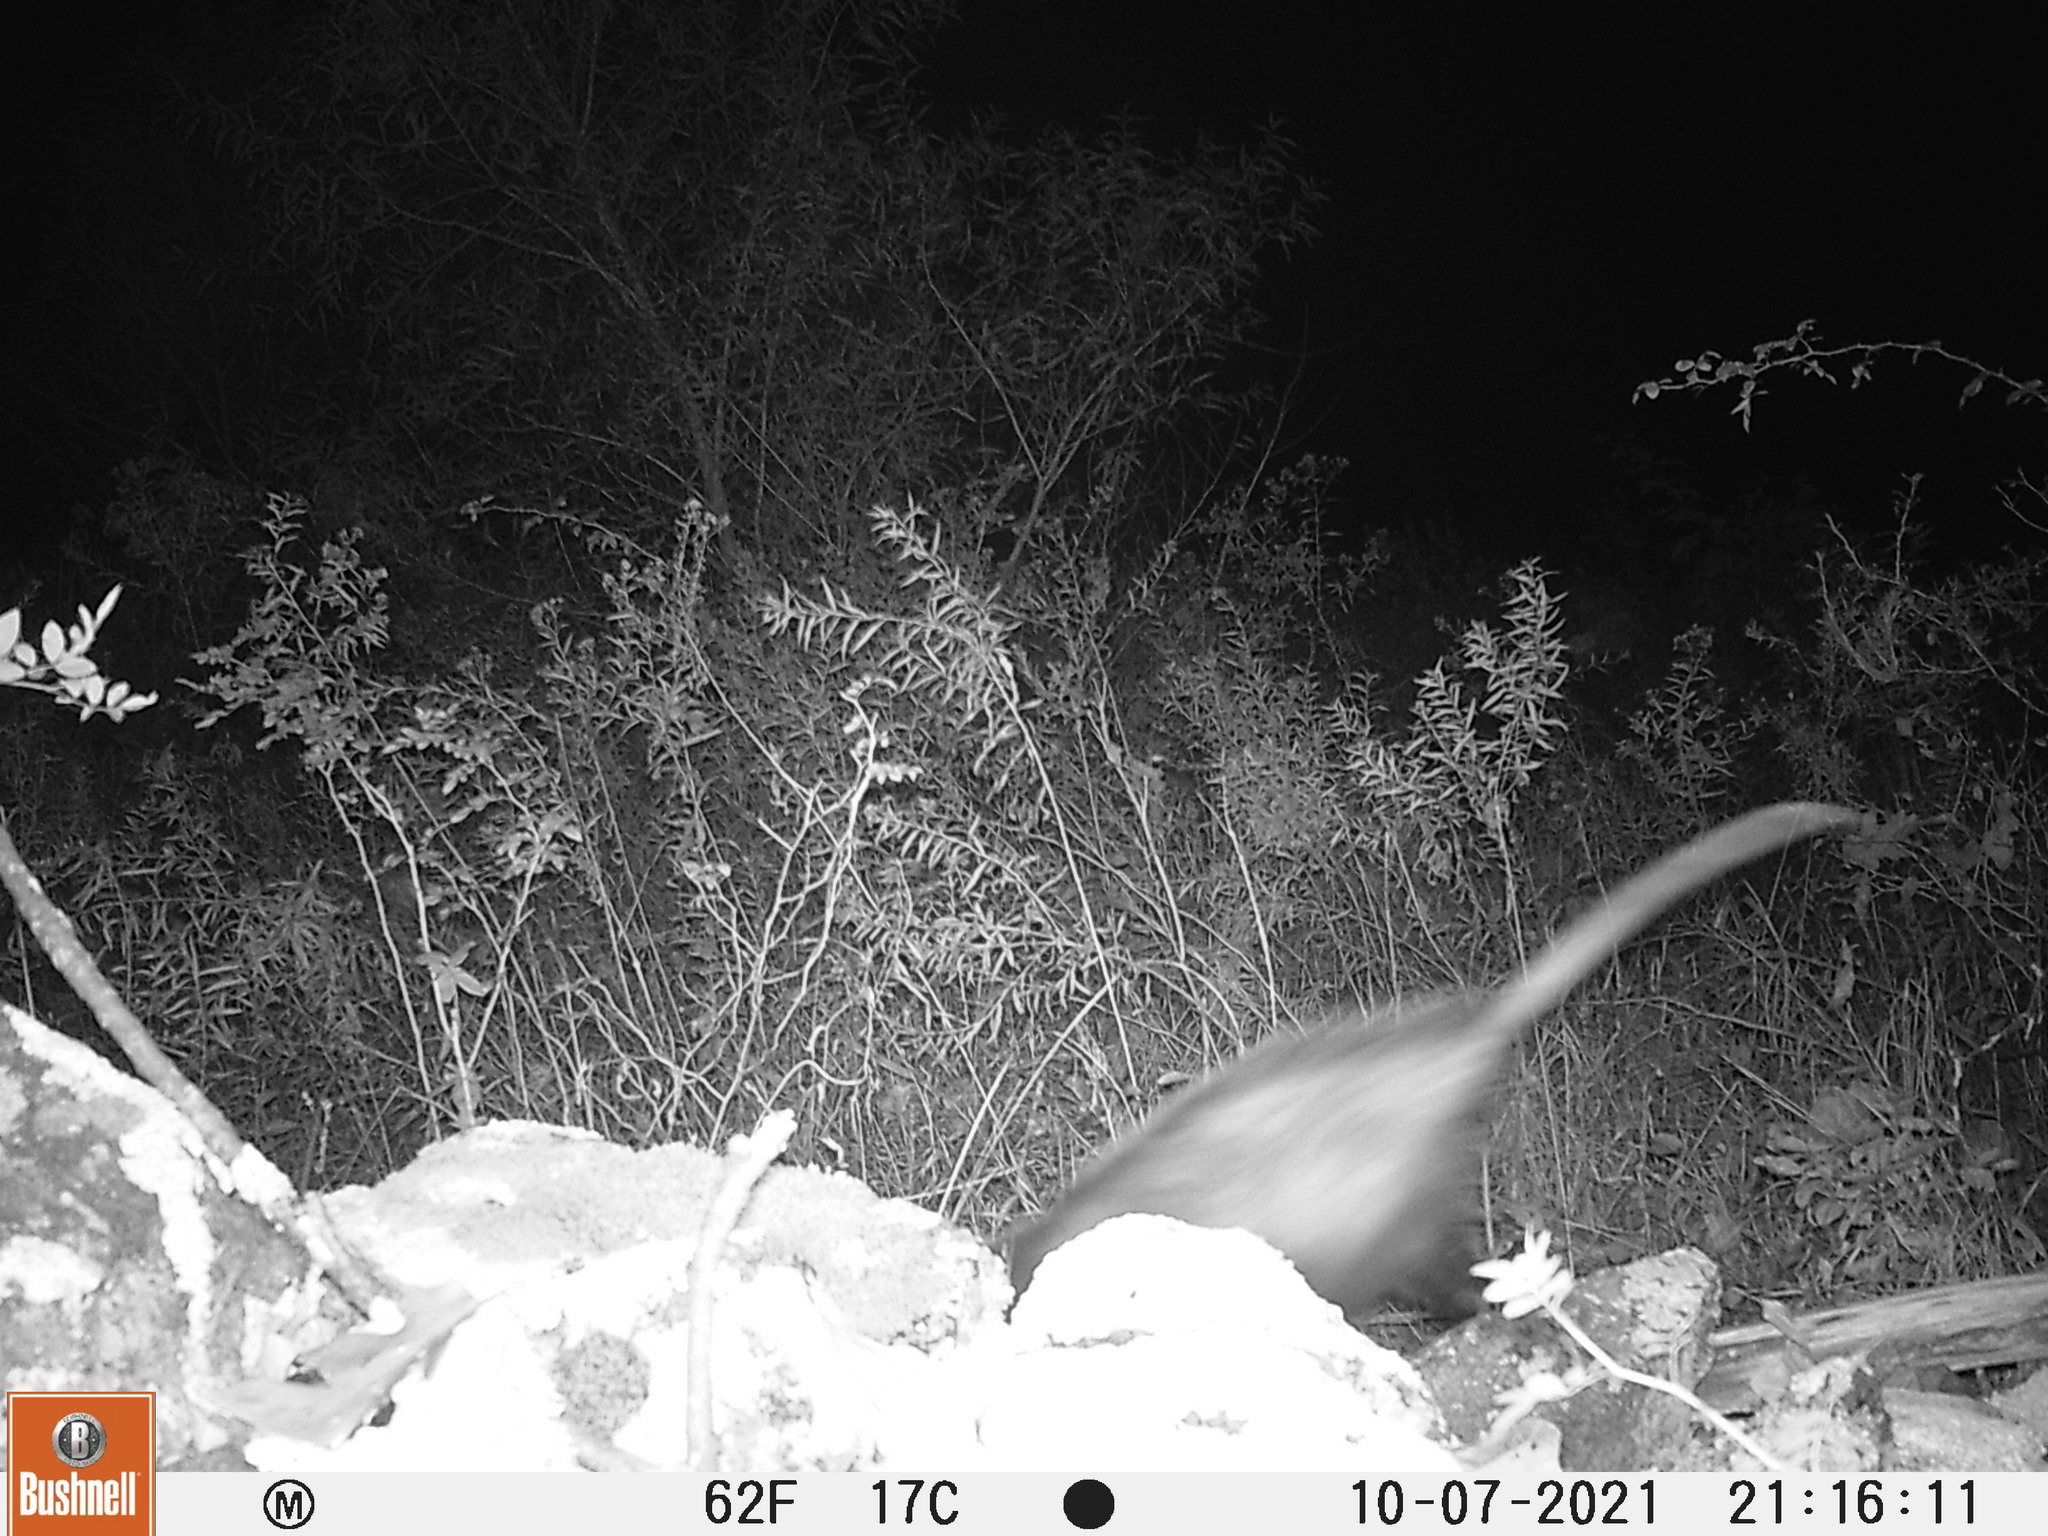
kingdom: Animalia
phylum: Chordata
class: Mammalia
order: Didelphimorphia
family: Didelphidae
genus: Didelphis
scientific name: Didelphis virginiana
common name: Virginia opossum
